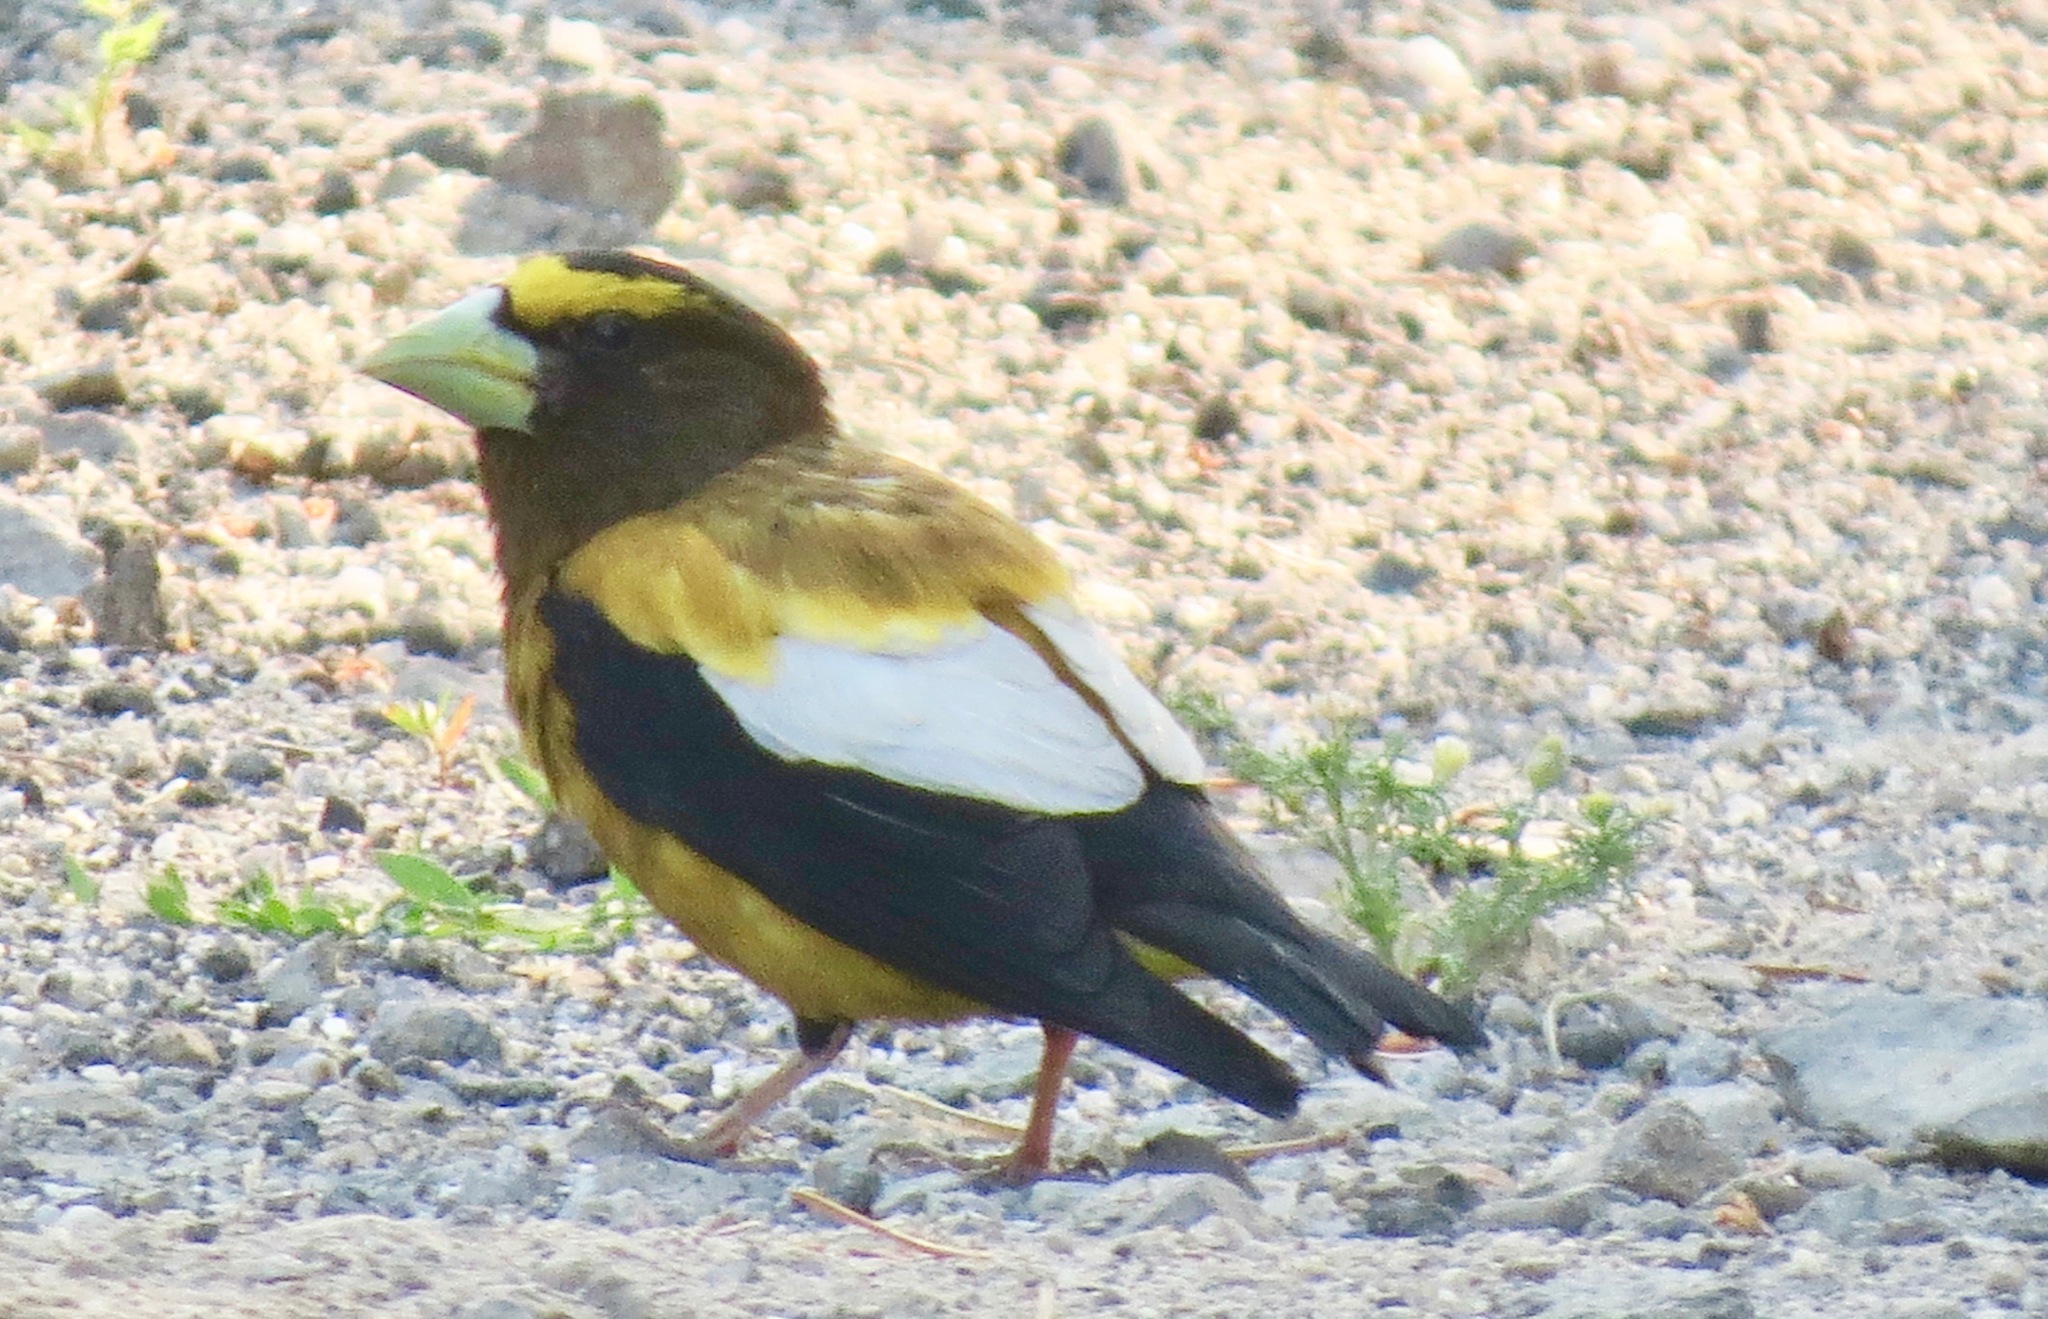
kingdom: Animalia
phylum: Chordata
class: Aves
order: Passeriformes
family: Fringillidae
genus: Hesperiphona
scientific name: Hesperiphona vespertina
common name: Evening grosbeak
